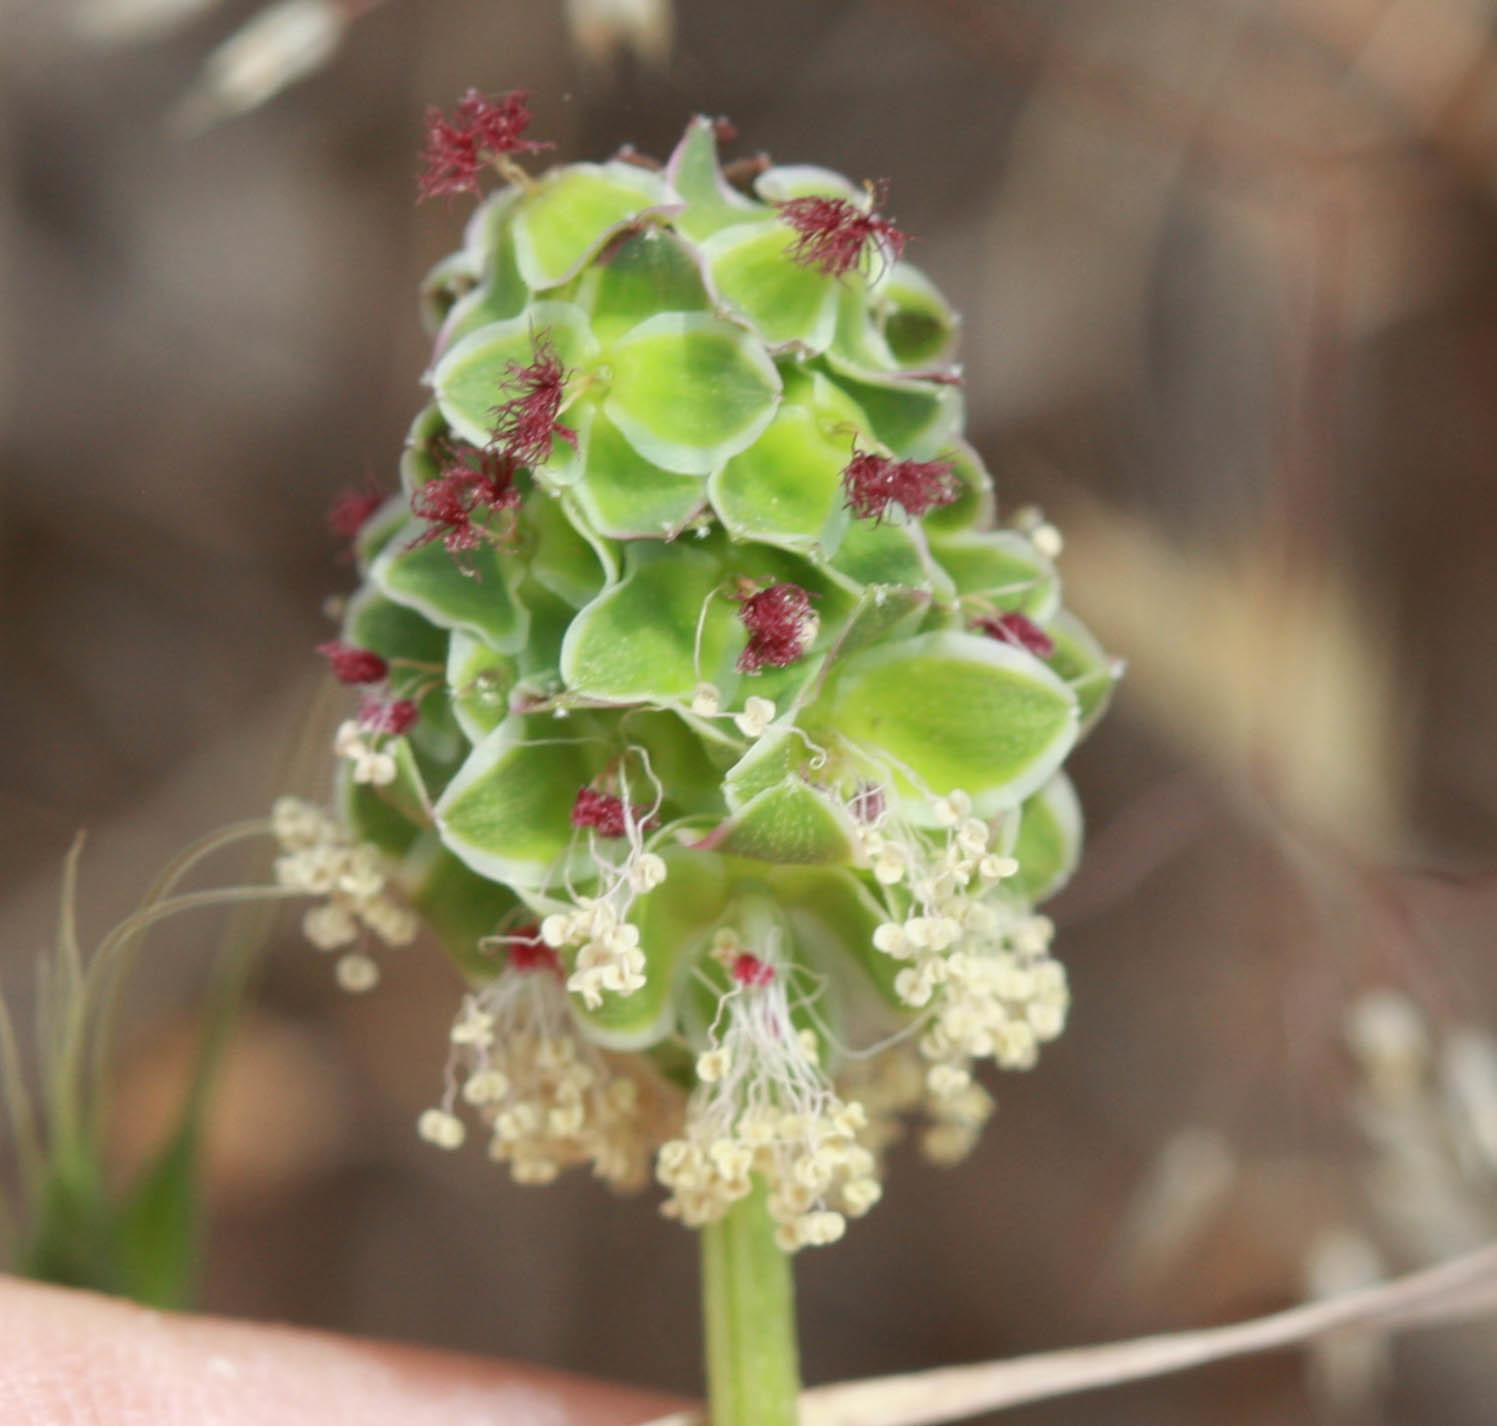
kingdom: Plantae
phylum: Tracheophyta
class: Magnoliopsida
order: Rosales
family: Rosaceae
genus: Poterium
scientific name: Poterium sanguisorba
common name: Salad burnet
